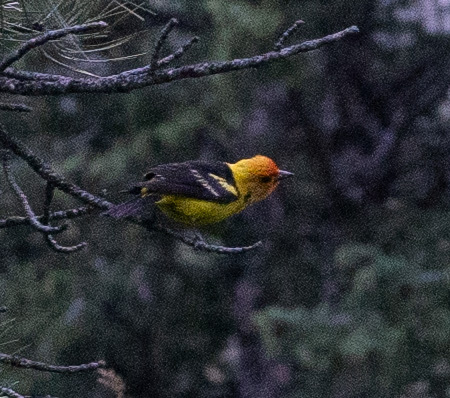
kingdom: Animalia
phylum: Chordata
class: Aves
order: Passeriformes
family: Cardinalidae
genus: Piranga
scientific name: Piranga ludoviciana
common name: Western tanager
